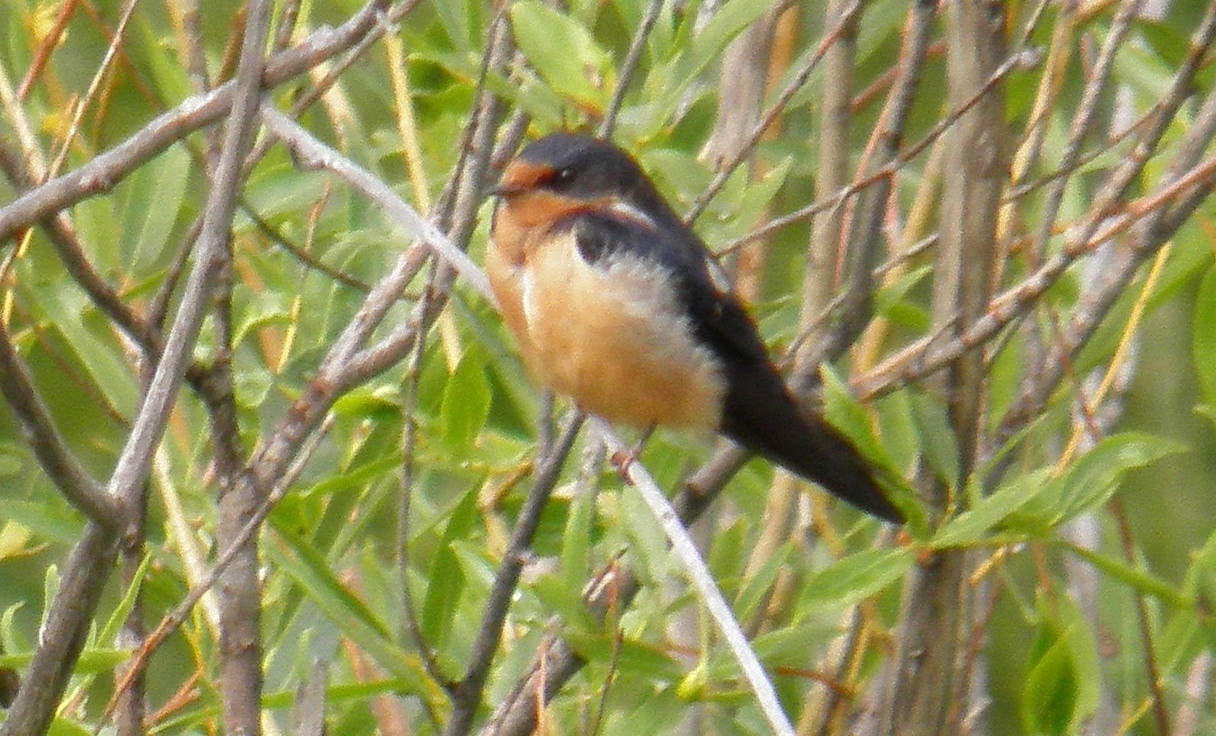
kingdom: Animalia
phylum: Chordata
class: Aves
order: Passeriformes
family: Hirundinidae
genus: Hirundo
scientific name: Hirundo rustica
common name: Barn swallow
